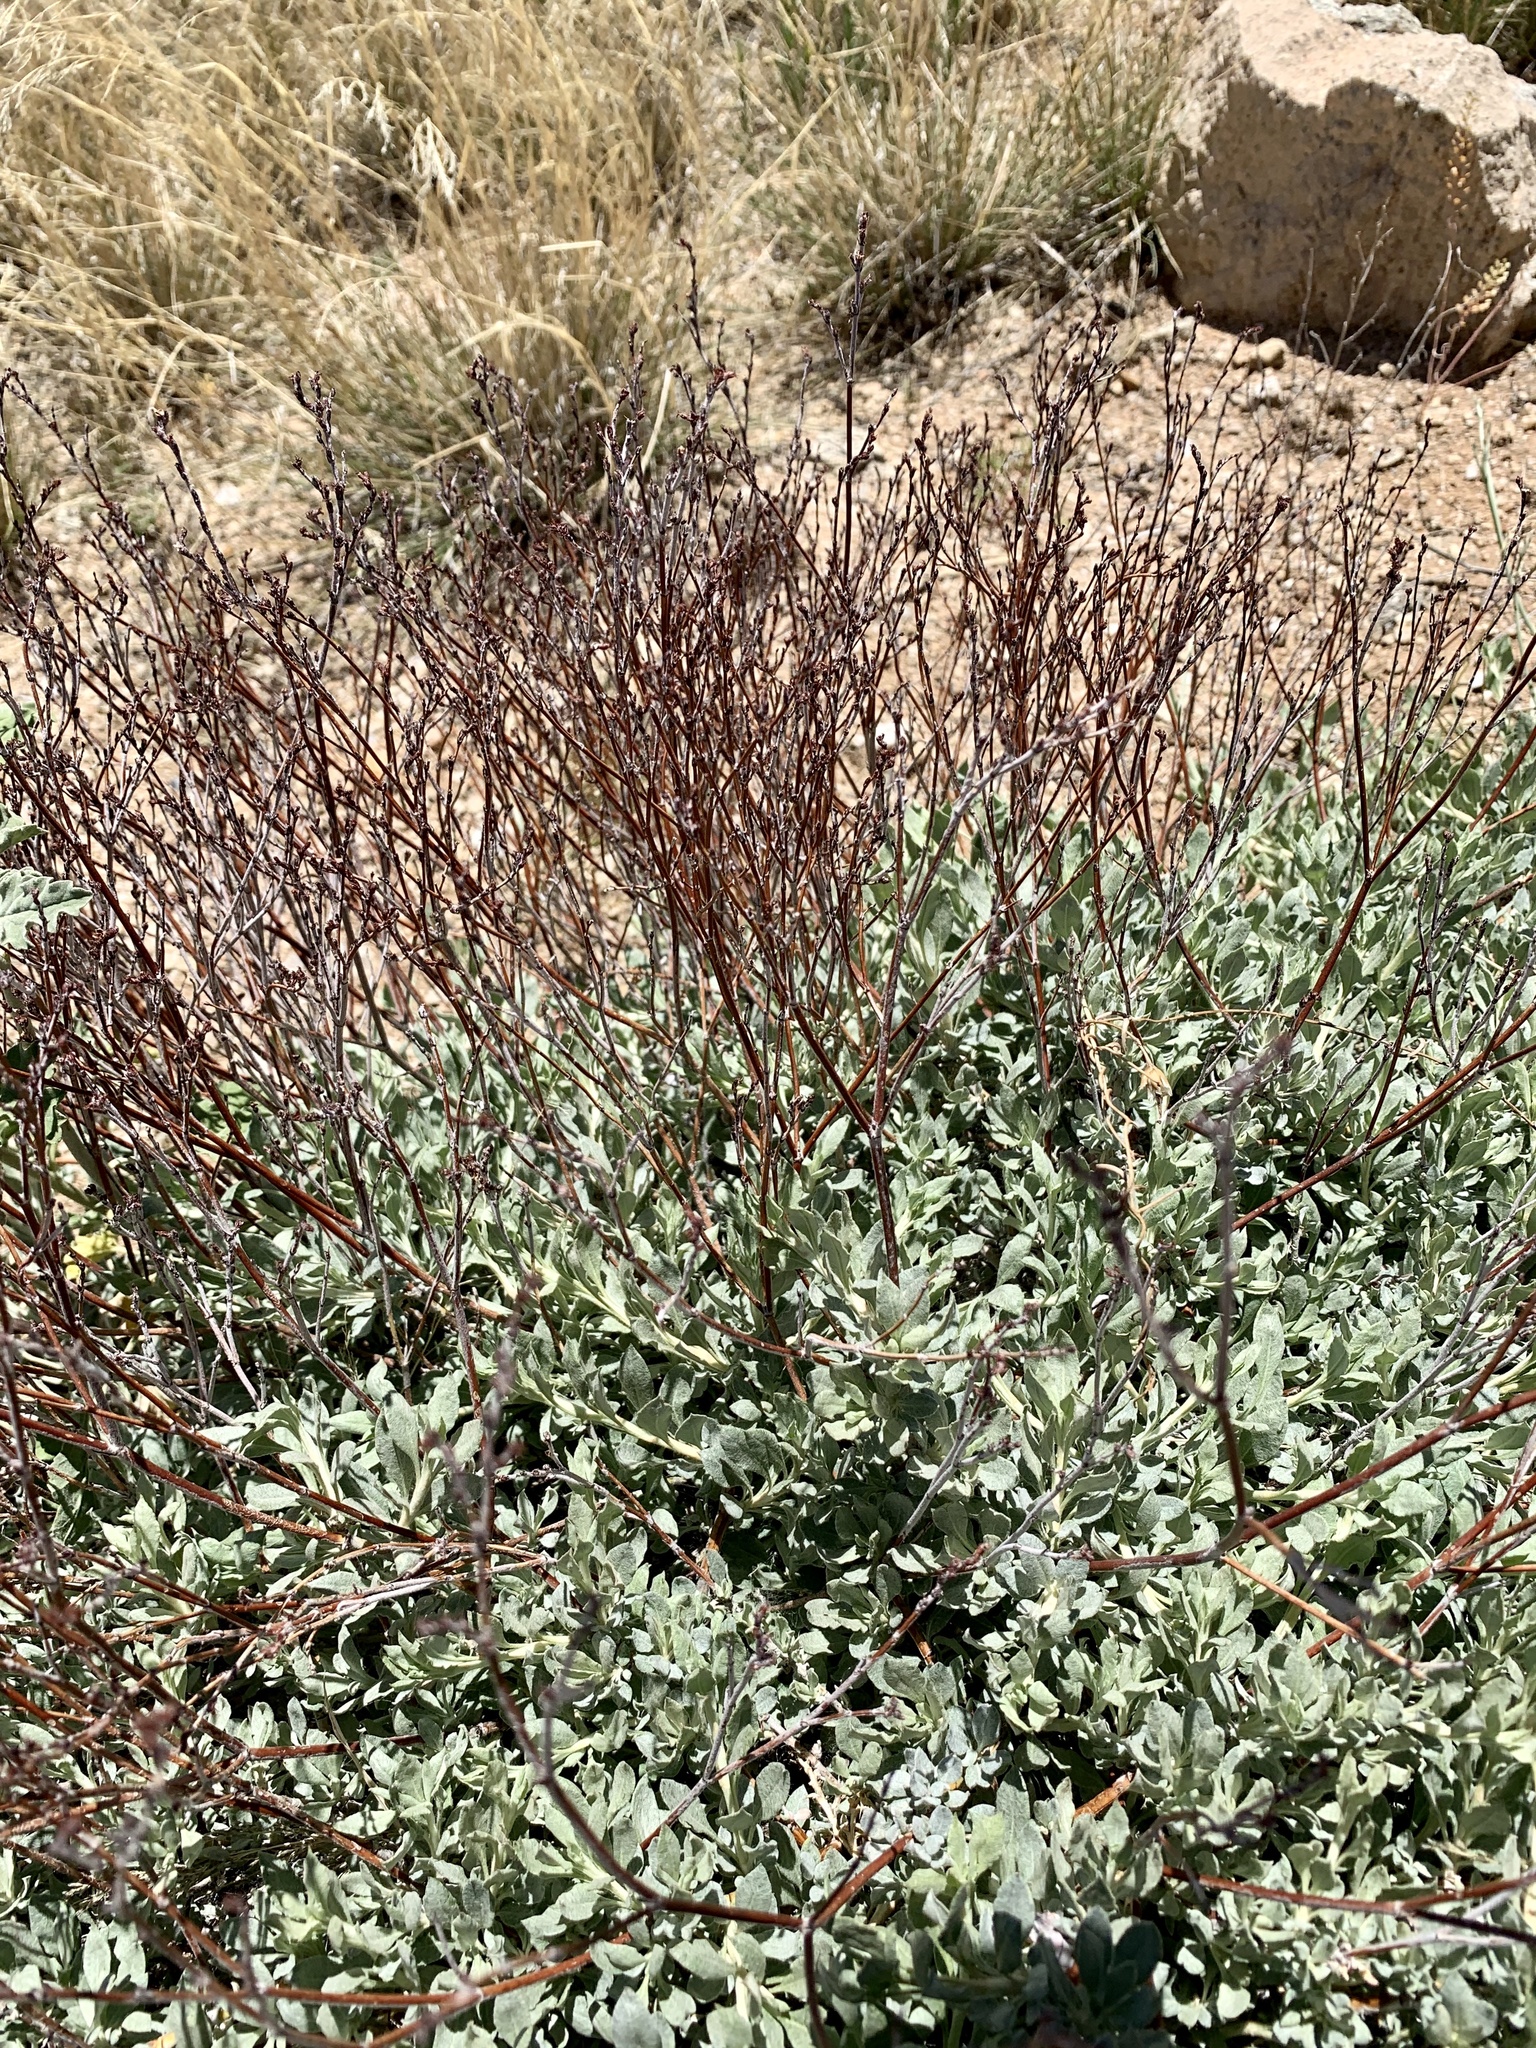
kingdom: Plantae
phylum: Tracheophyta
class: Magnoliopsida
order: Caryophyllales
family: Polygonaceae
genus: Eriogonum
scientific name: Eriogonum wrightii
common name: Bastard-sage
